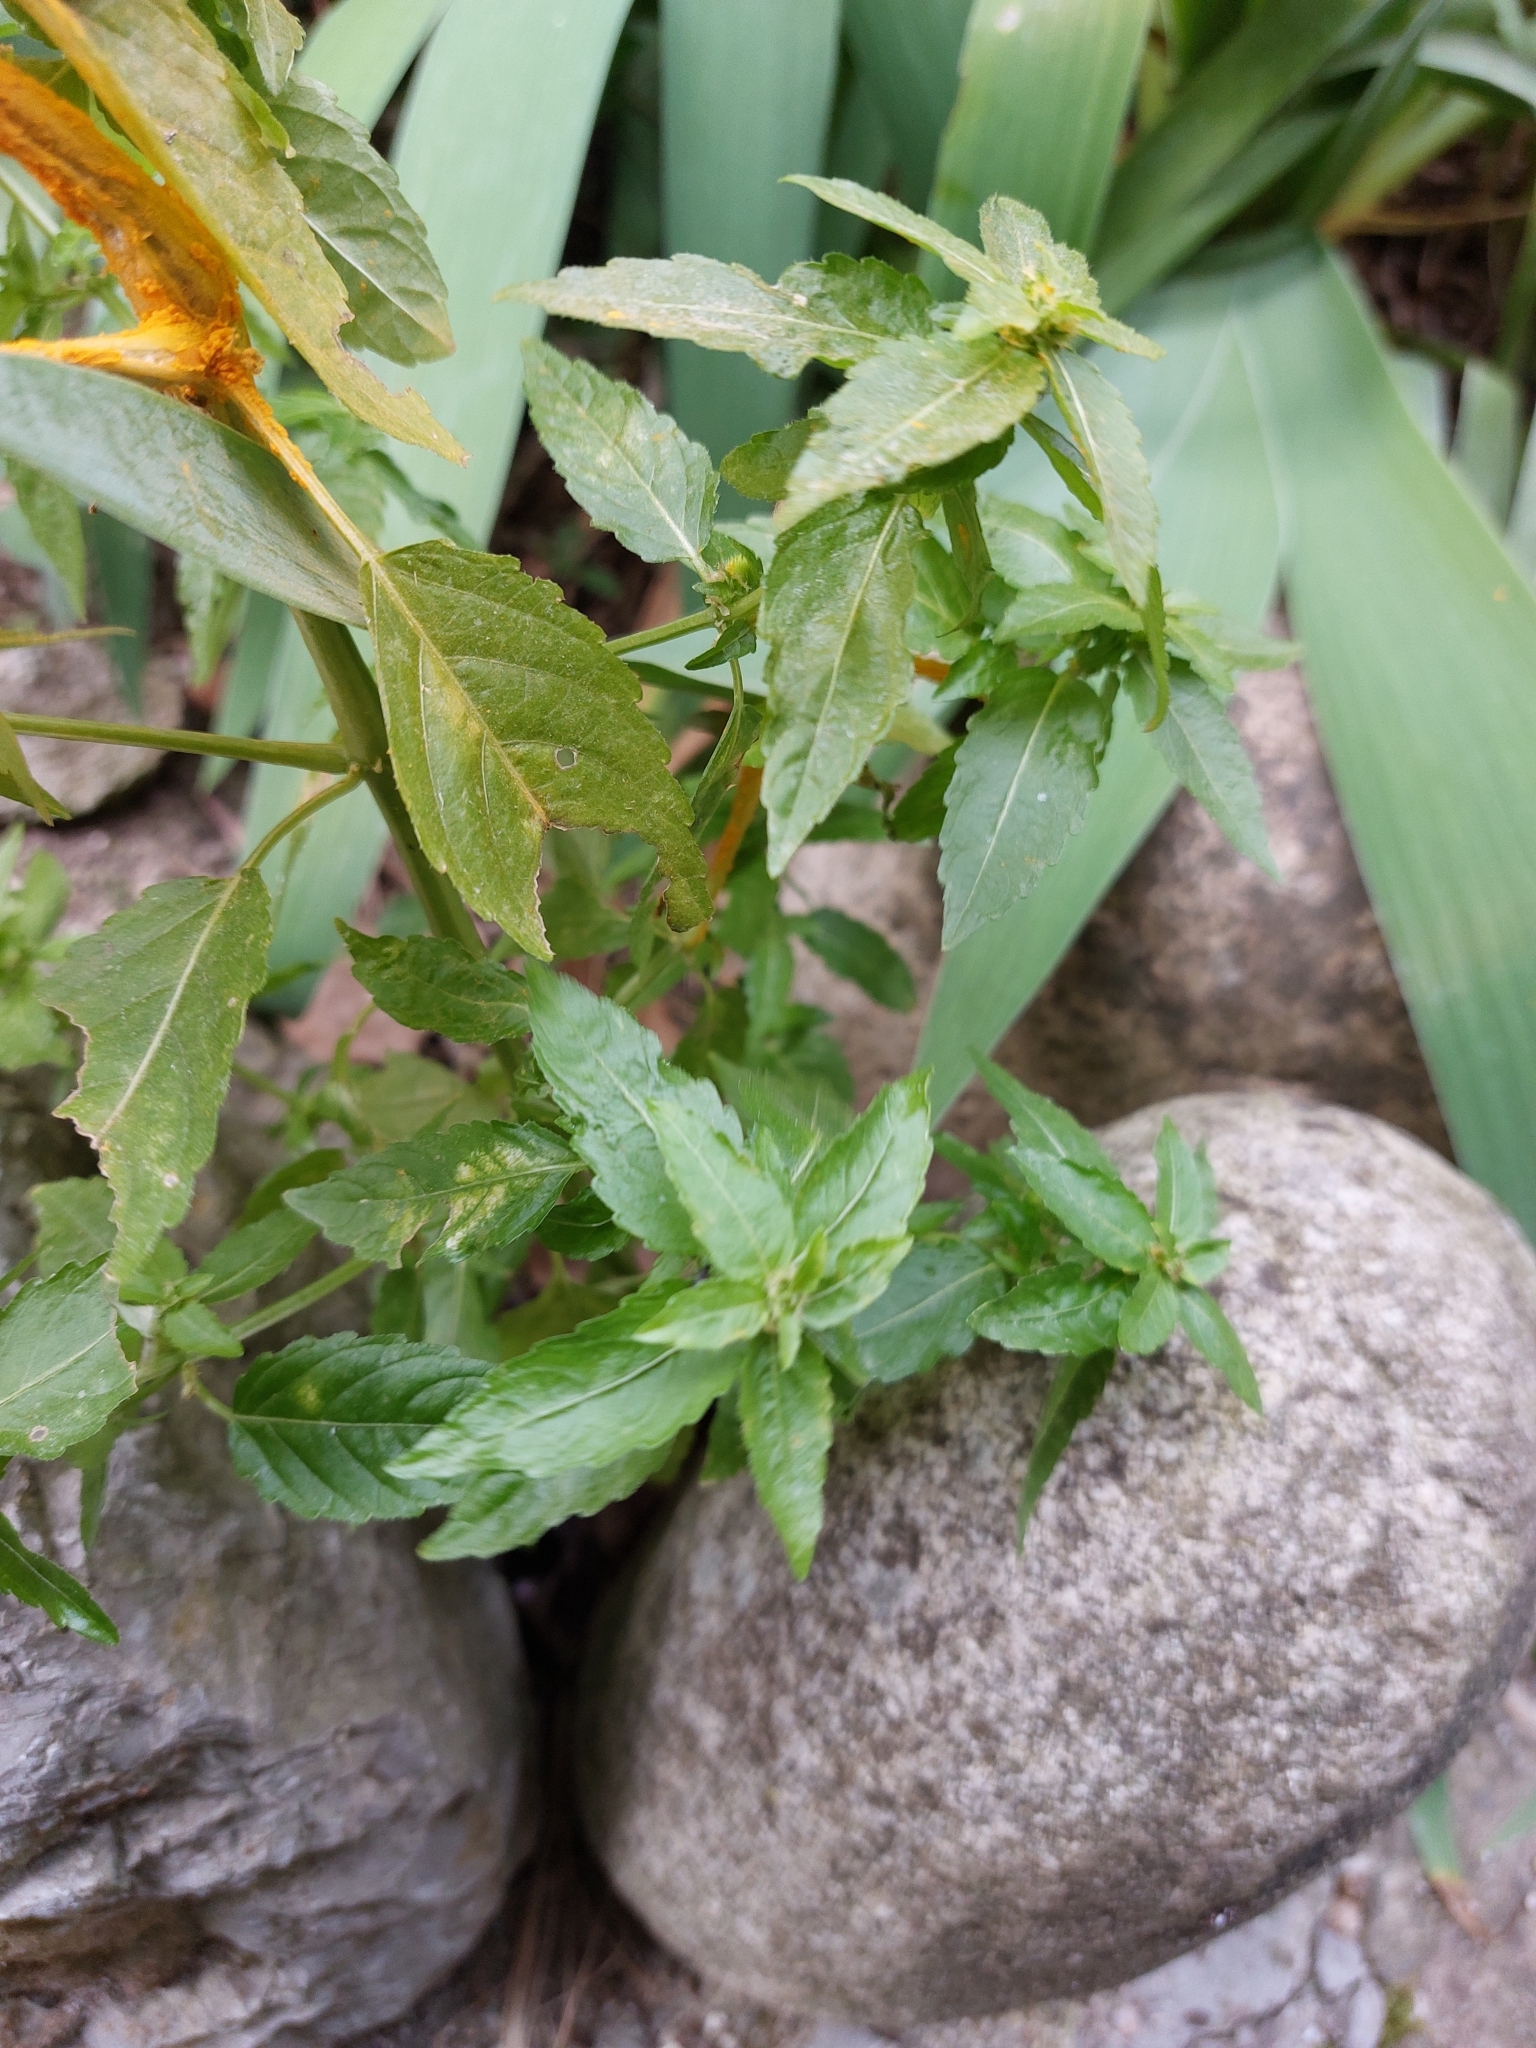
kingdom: Plantae
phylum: Tracheophyta
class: Magnoliopsida
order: Malpighiales
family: Euphorbiaceae
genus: Mercurialis
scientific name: Mercurialis annua
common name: Annual mercury
